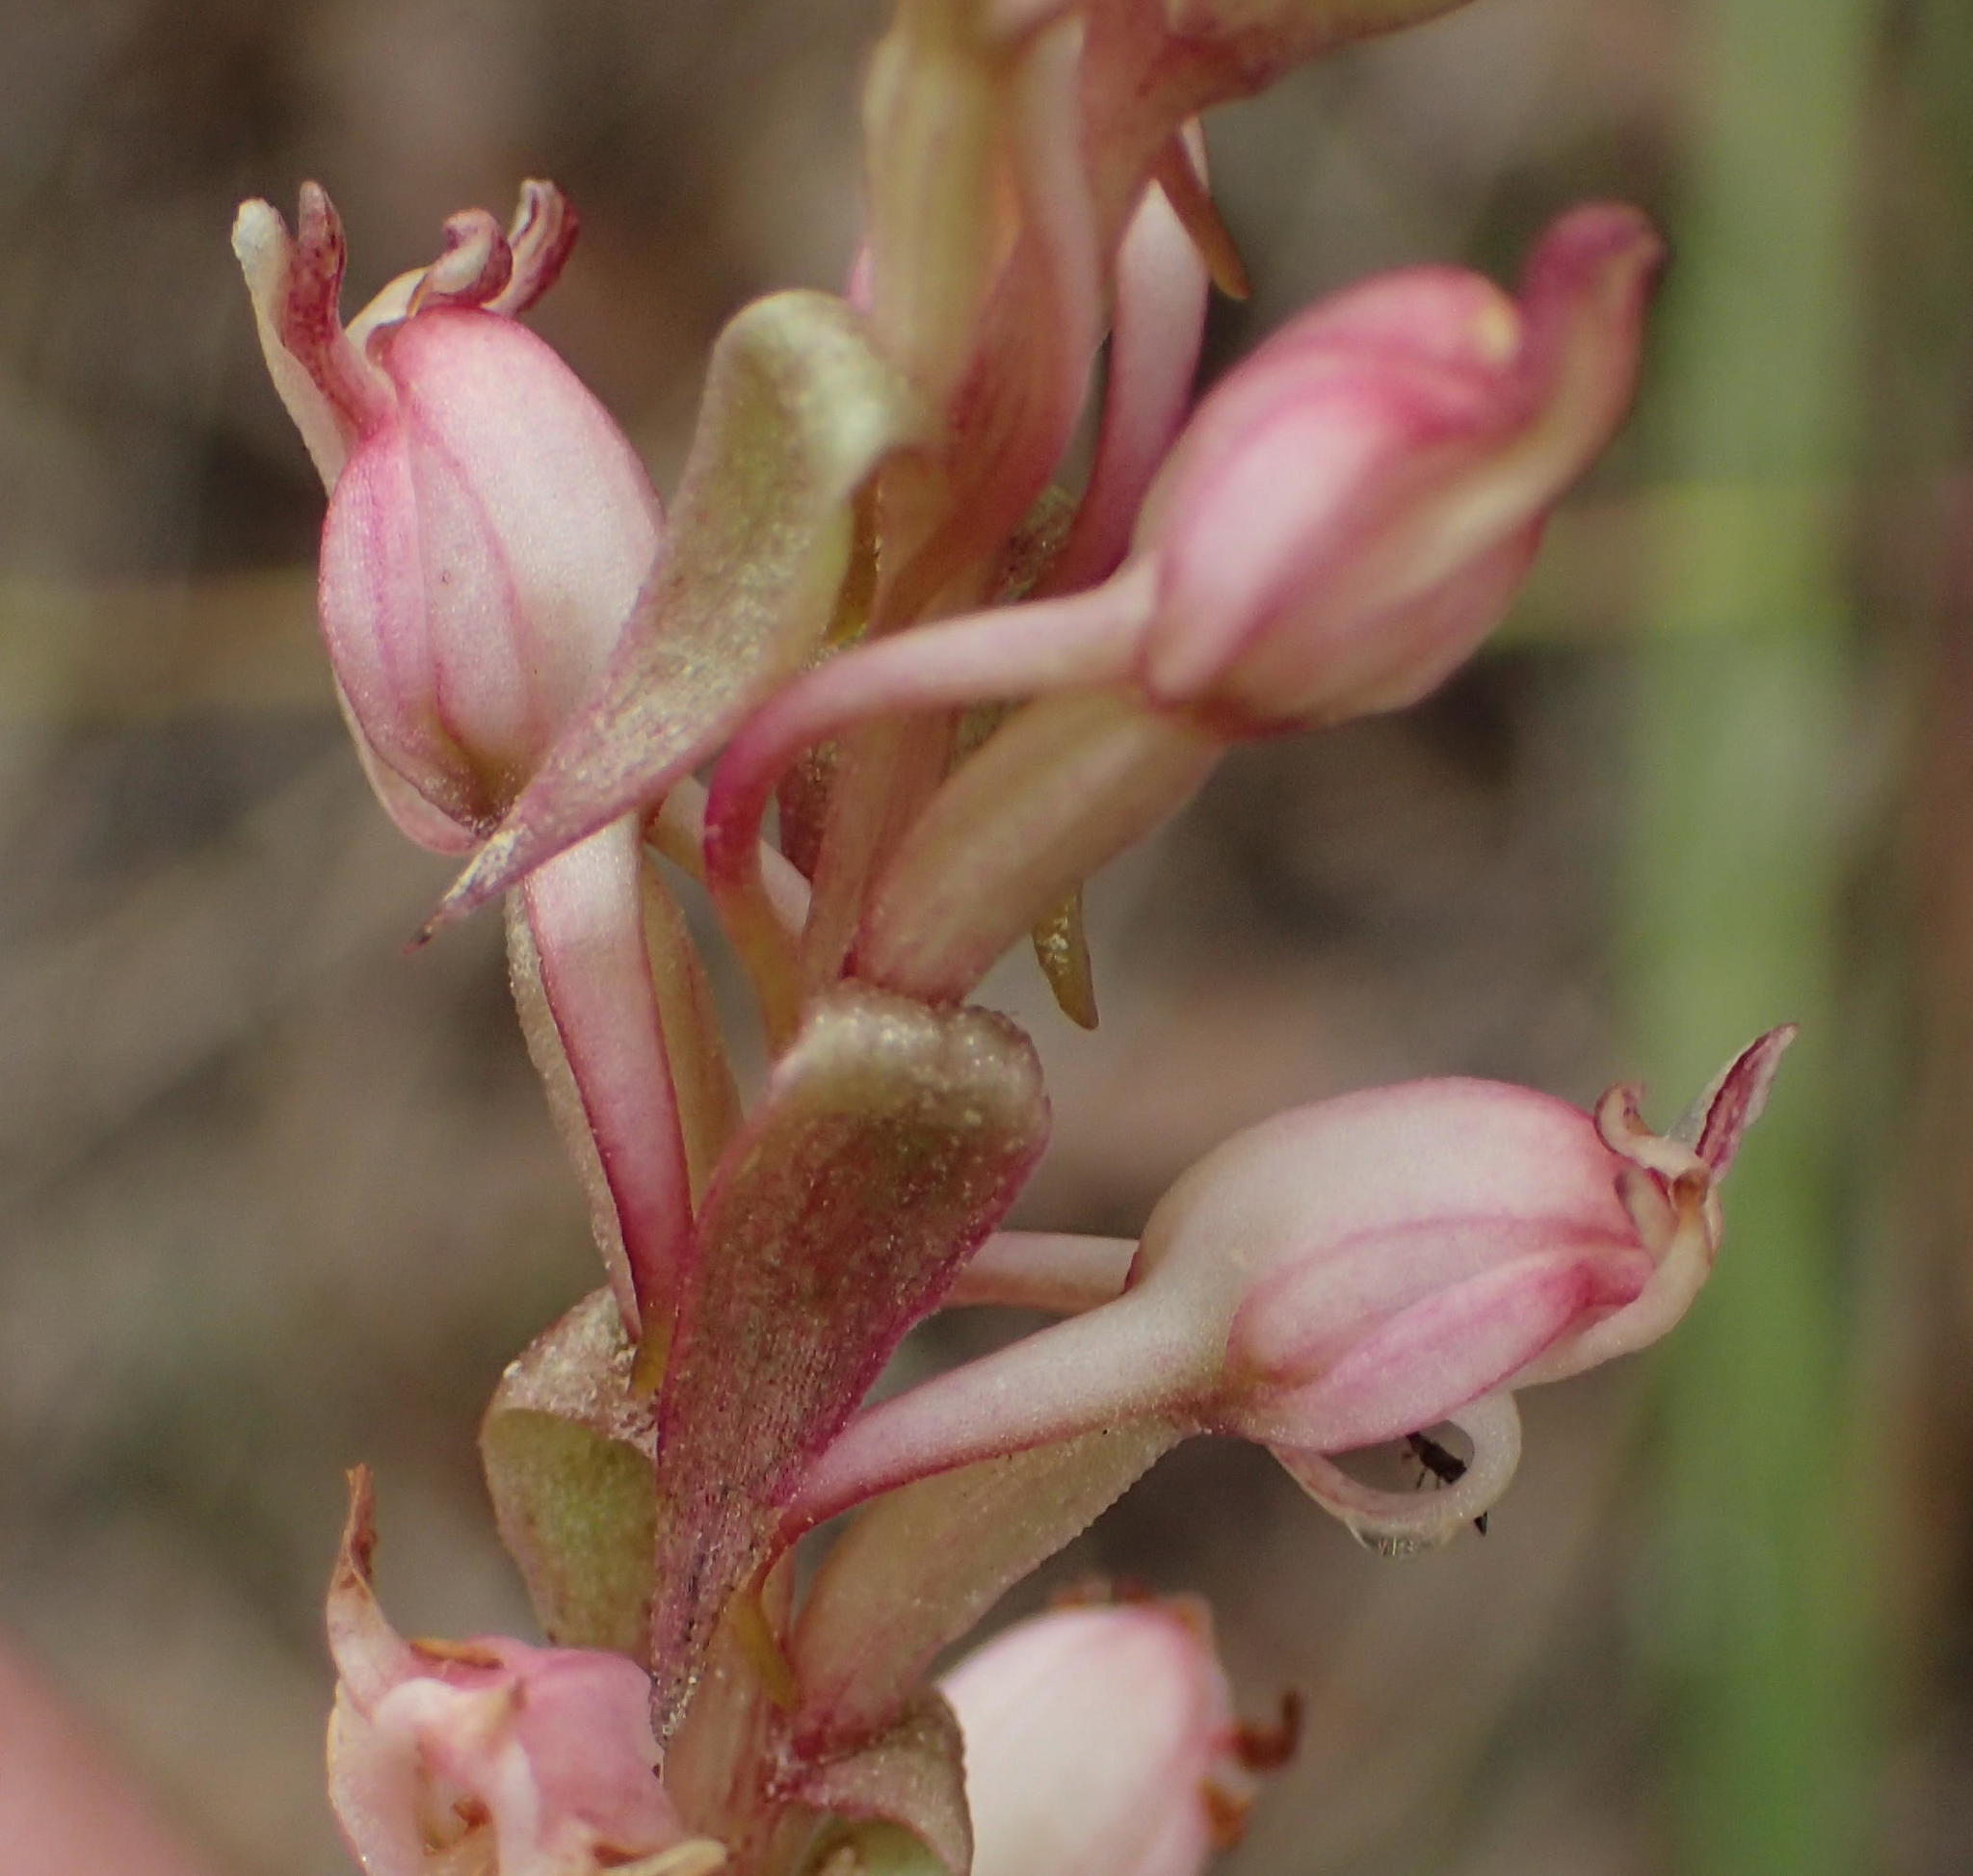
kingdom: Plantae
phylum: Tracheophyta
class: Liliopsida
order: Asparagales
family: Orchidaceae
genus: Satyrium
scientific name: Satyrium ligulatum
